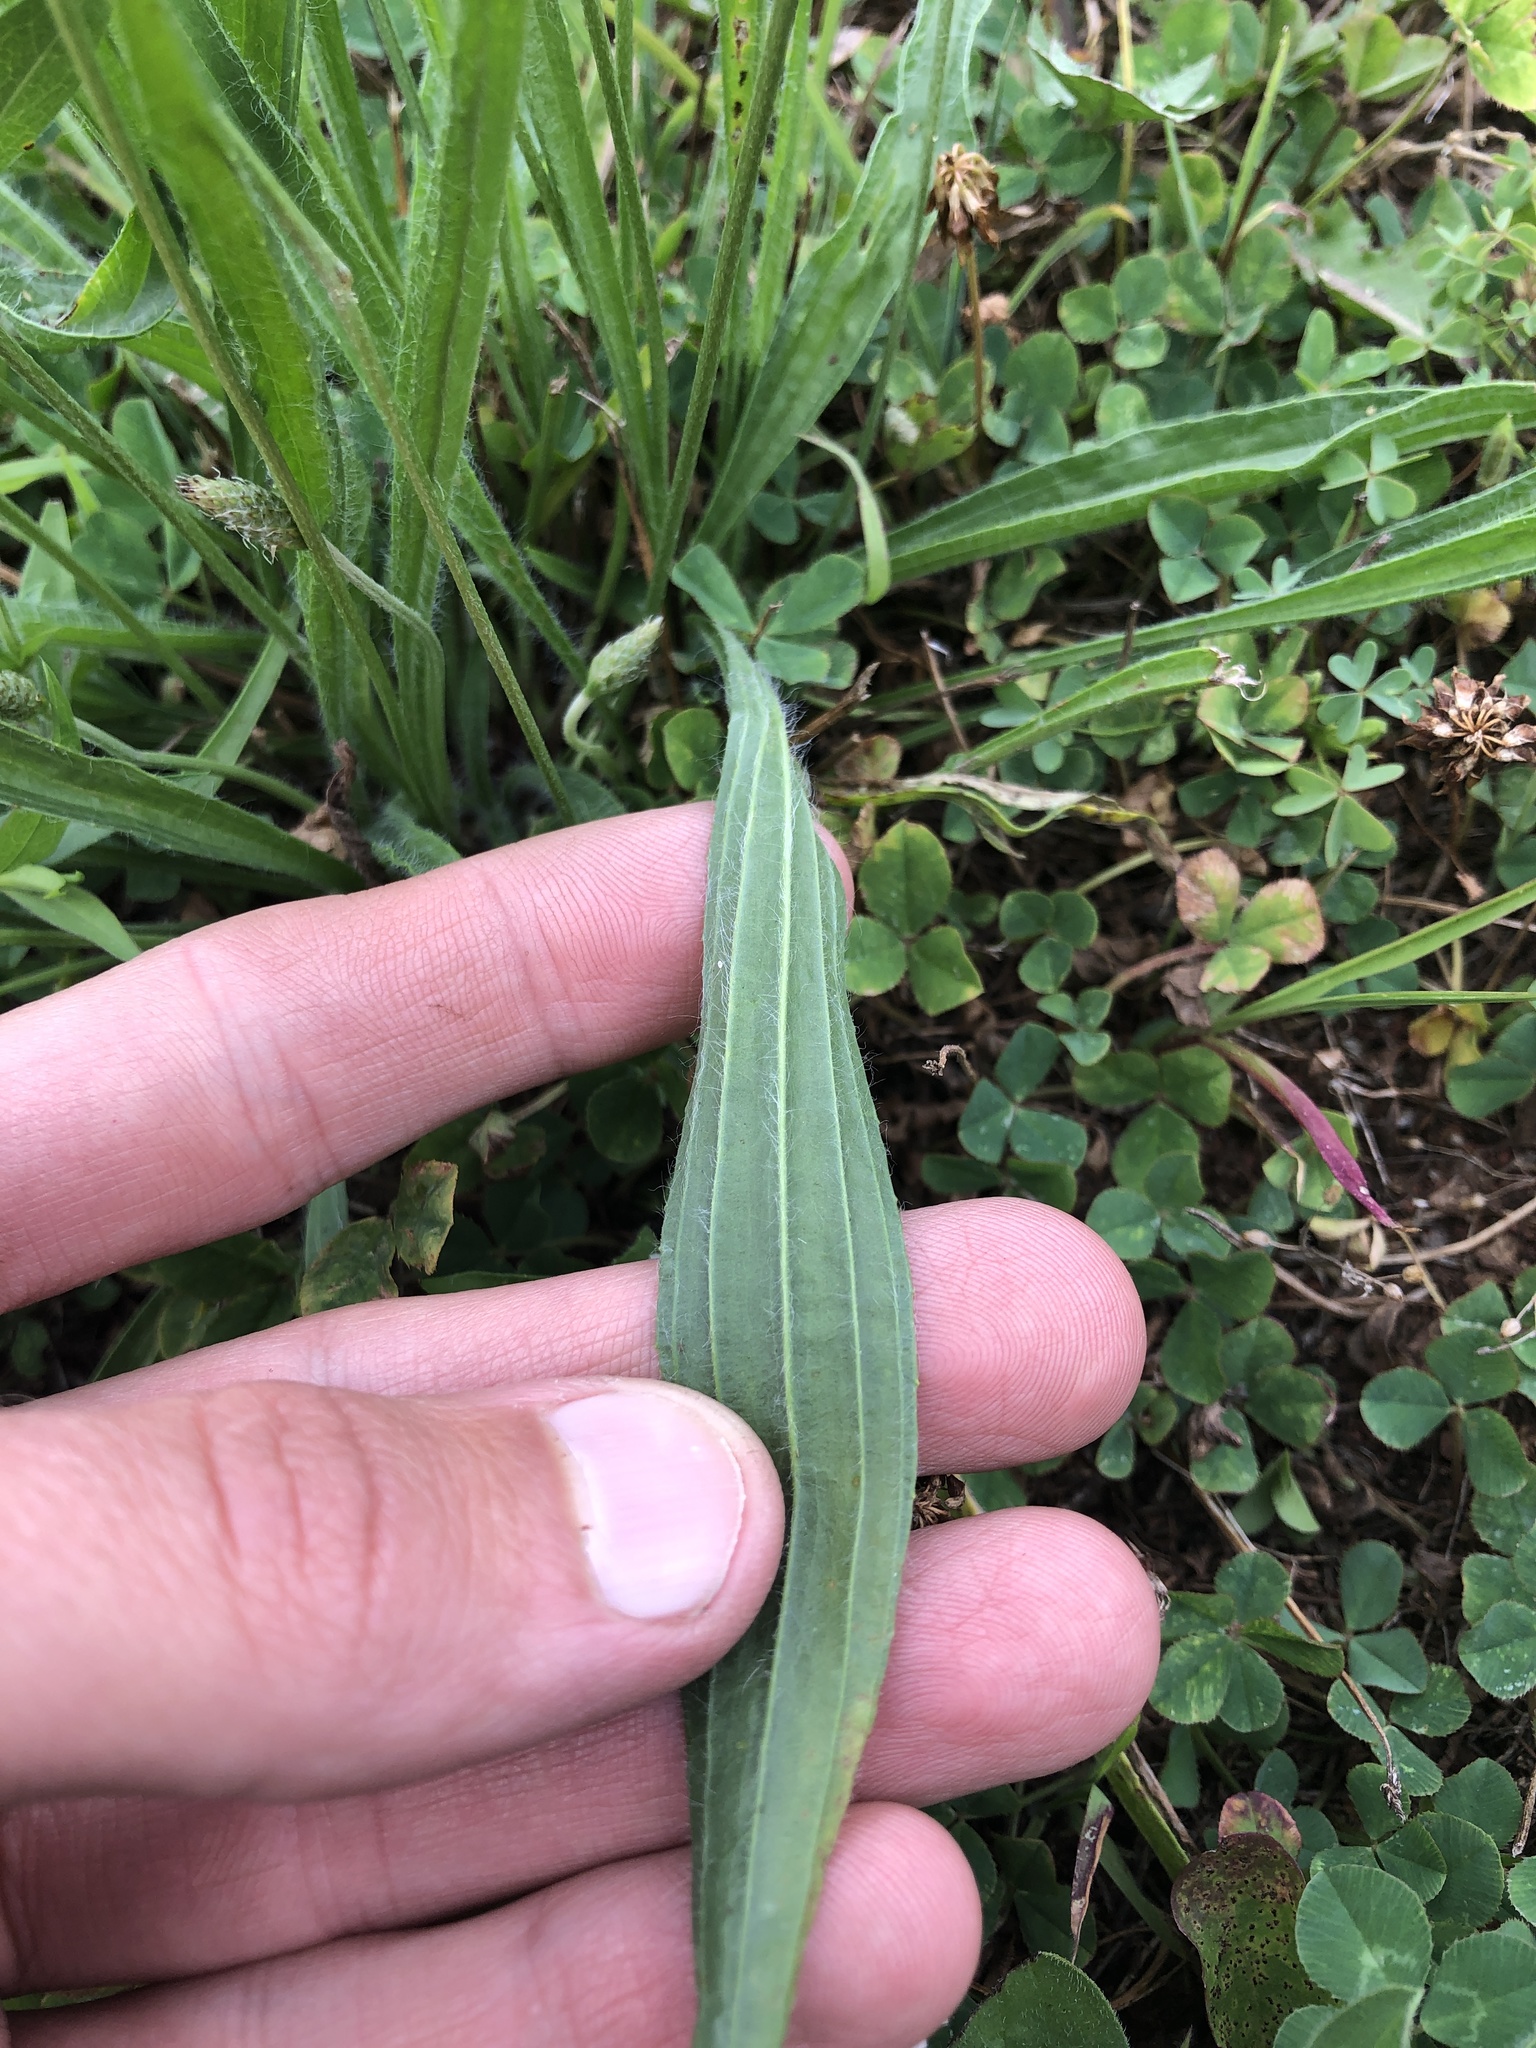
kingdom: Plantae
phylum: Tracheophyta
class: Magnoliopsida
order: Lamiales
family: Plantaginaceae
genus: Plantago
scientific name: Plantago lanceolata
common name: Ribwort plantain
